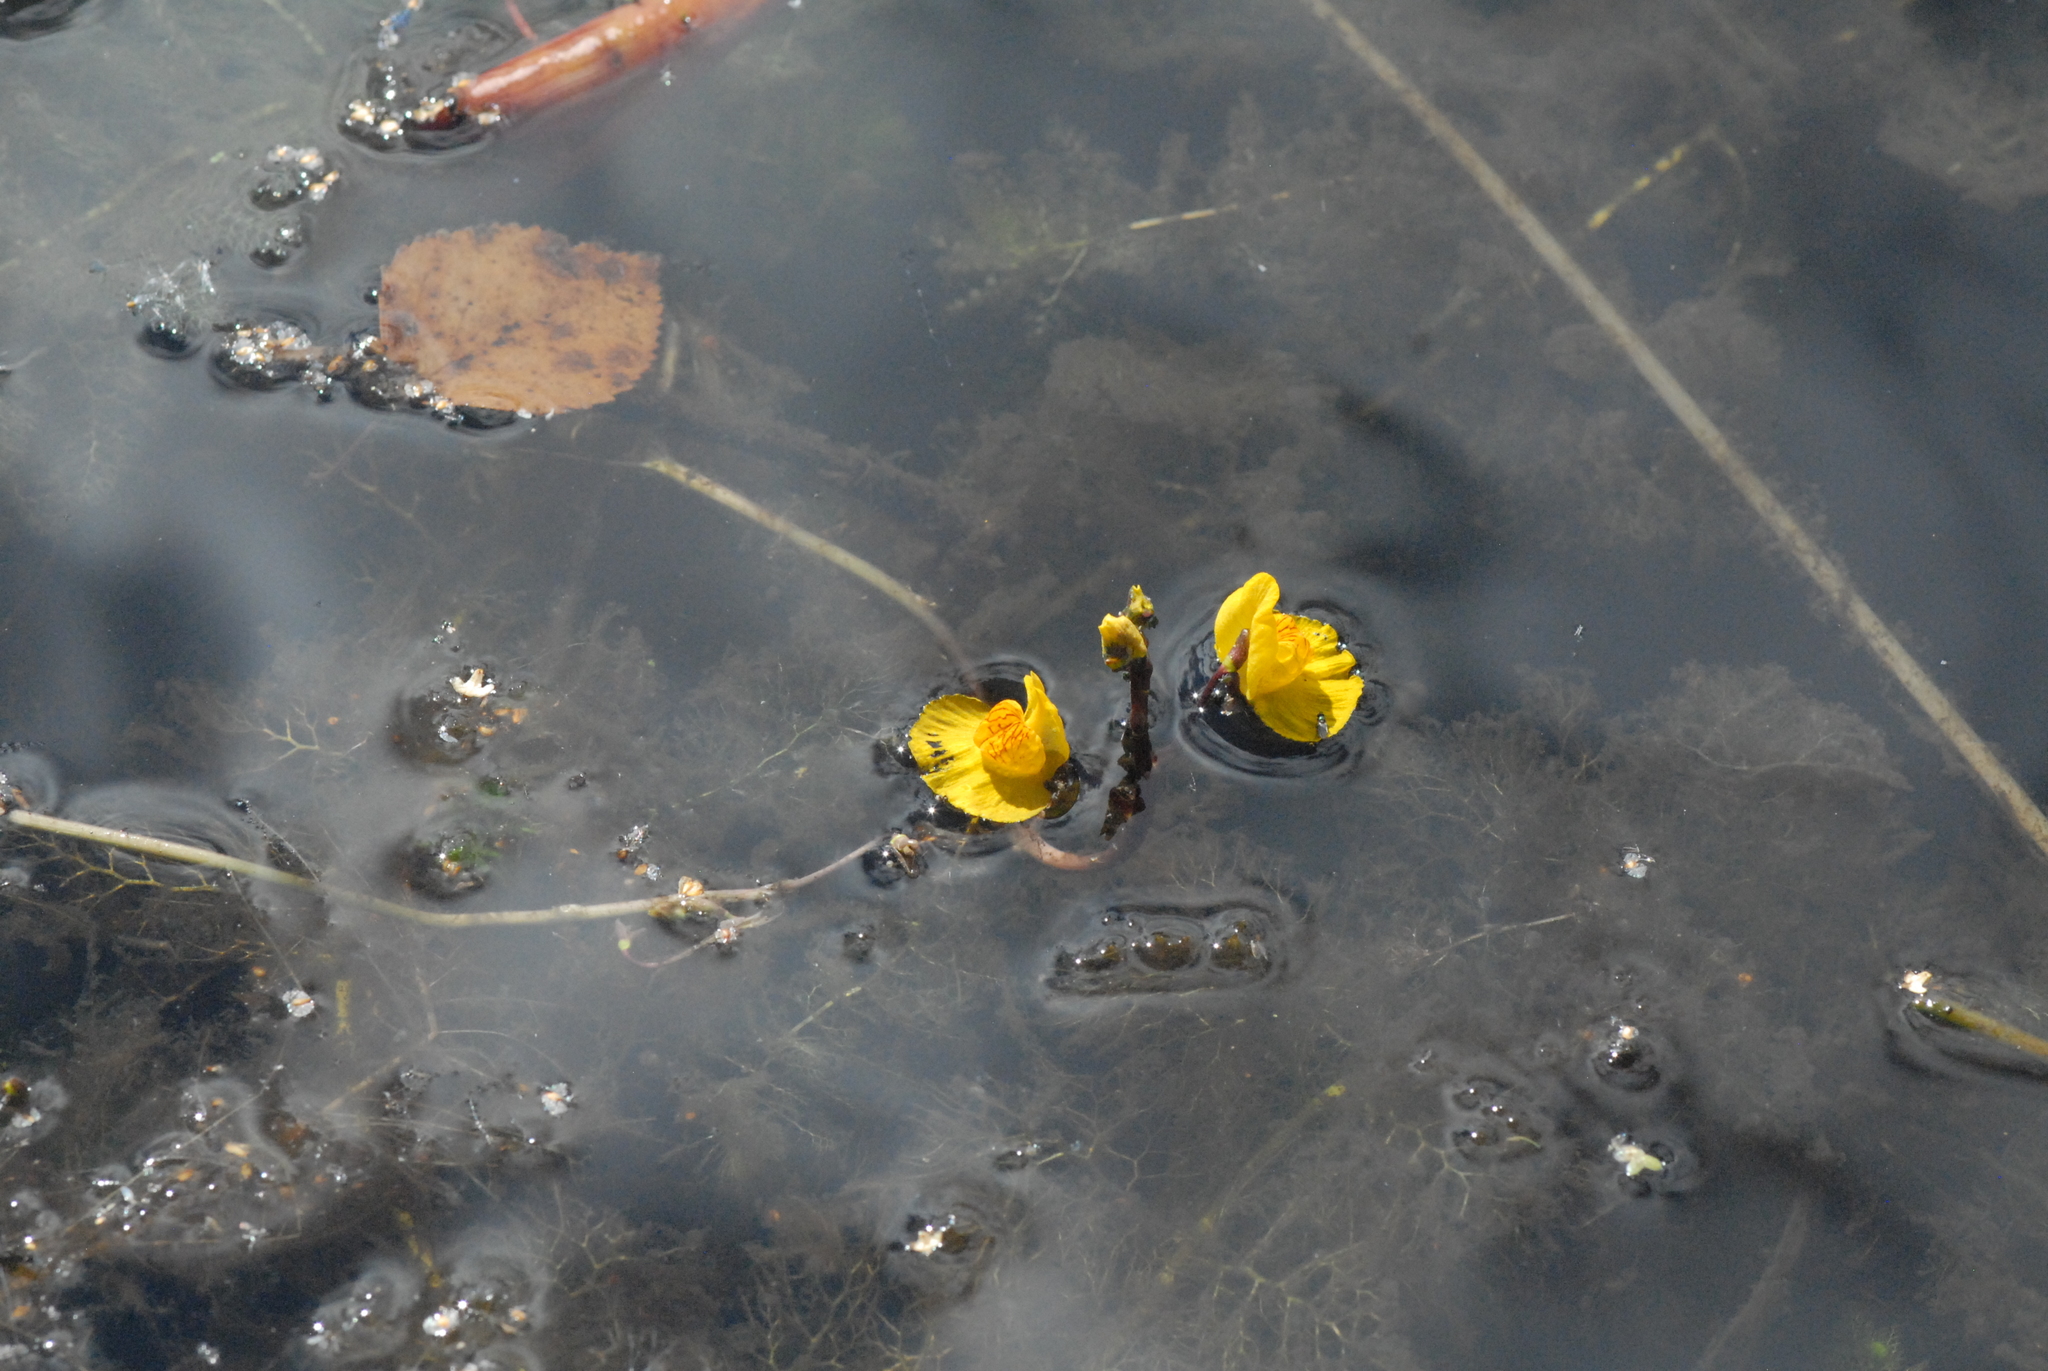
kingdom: Plantae
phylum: Tracheophyta
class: Magnoliopsida
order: Lamiales
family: Lentibulariaceae
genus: Utricularia
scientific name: Utricularia australis
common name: Bladderwort
